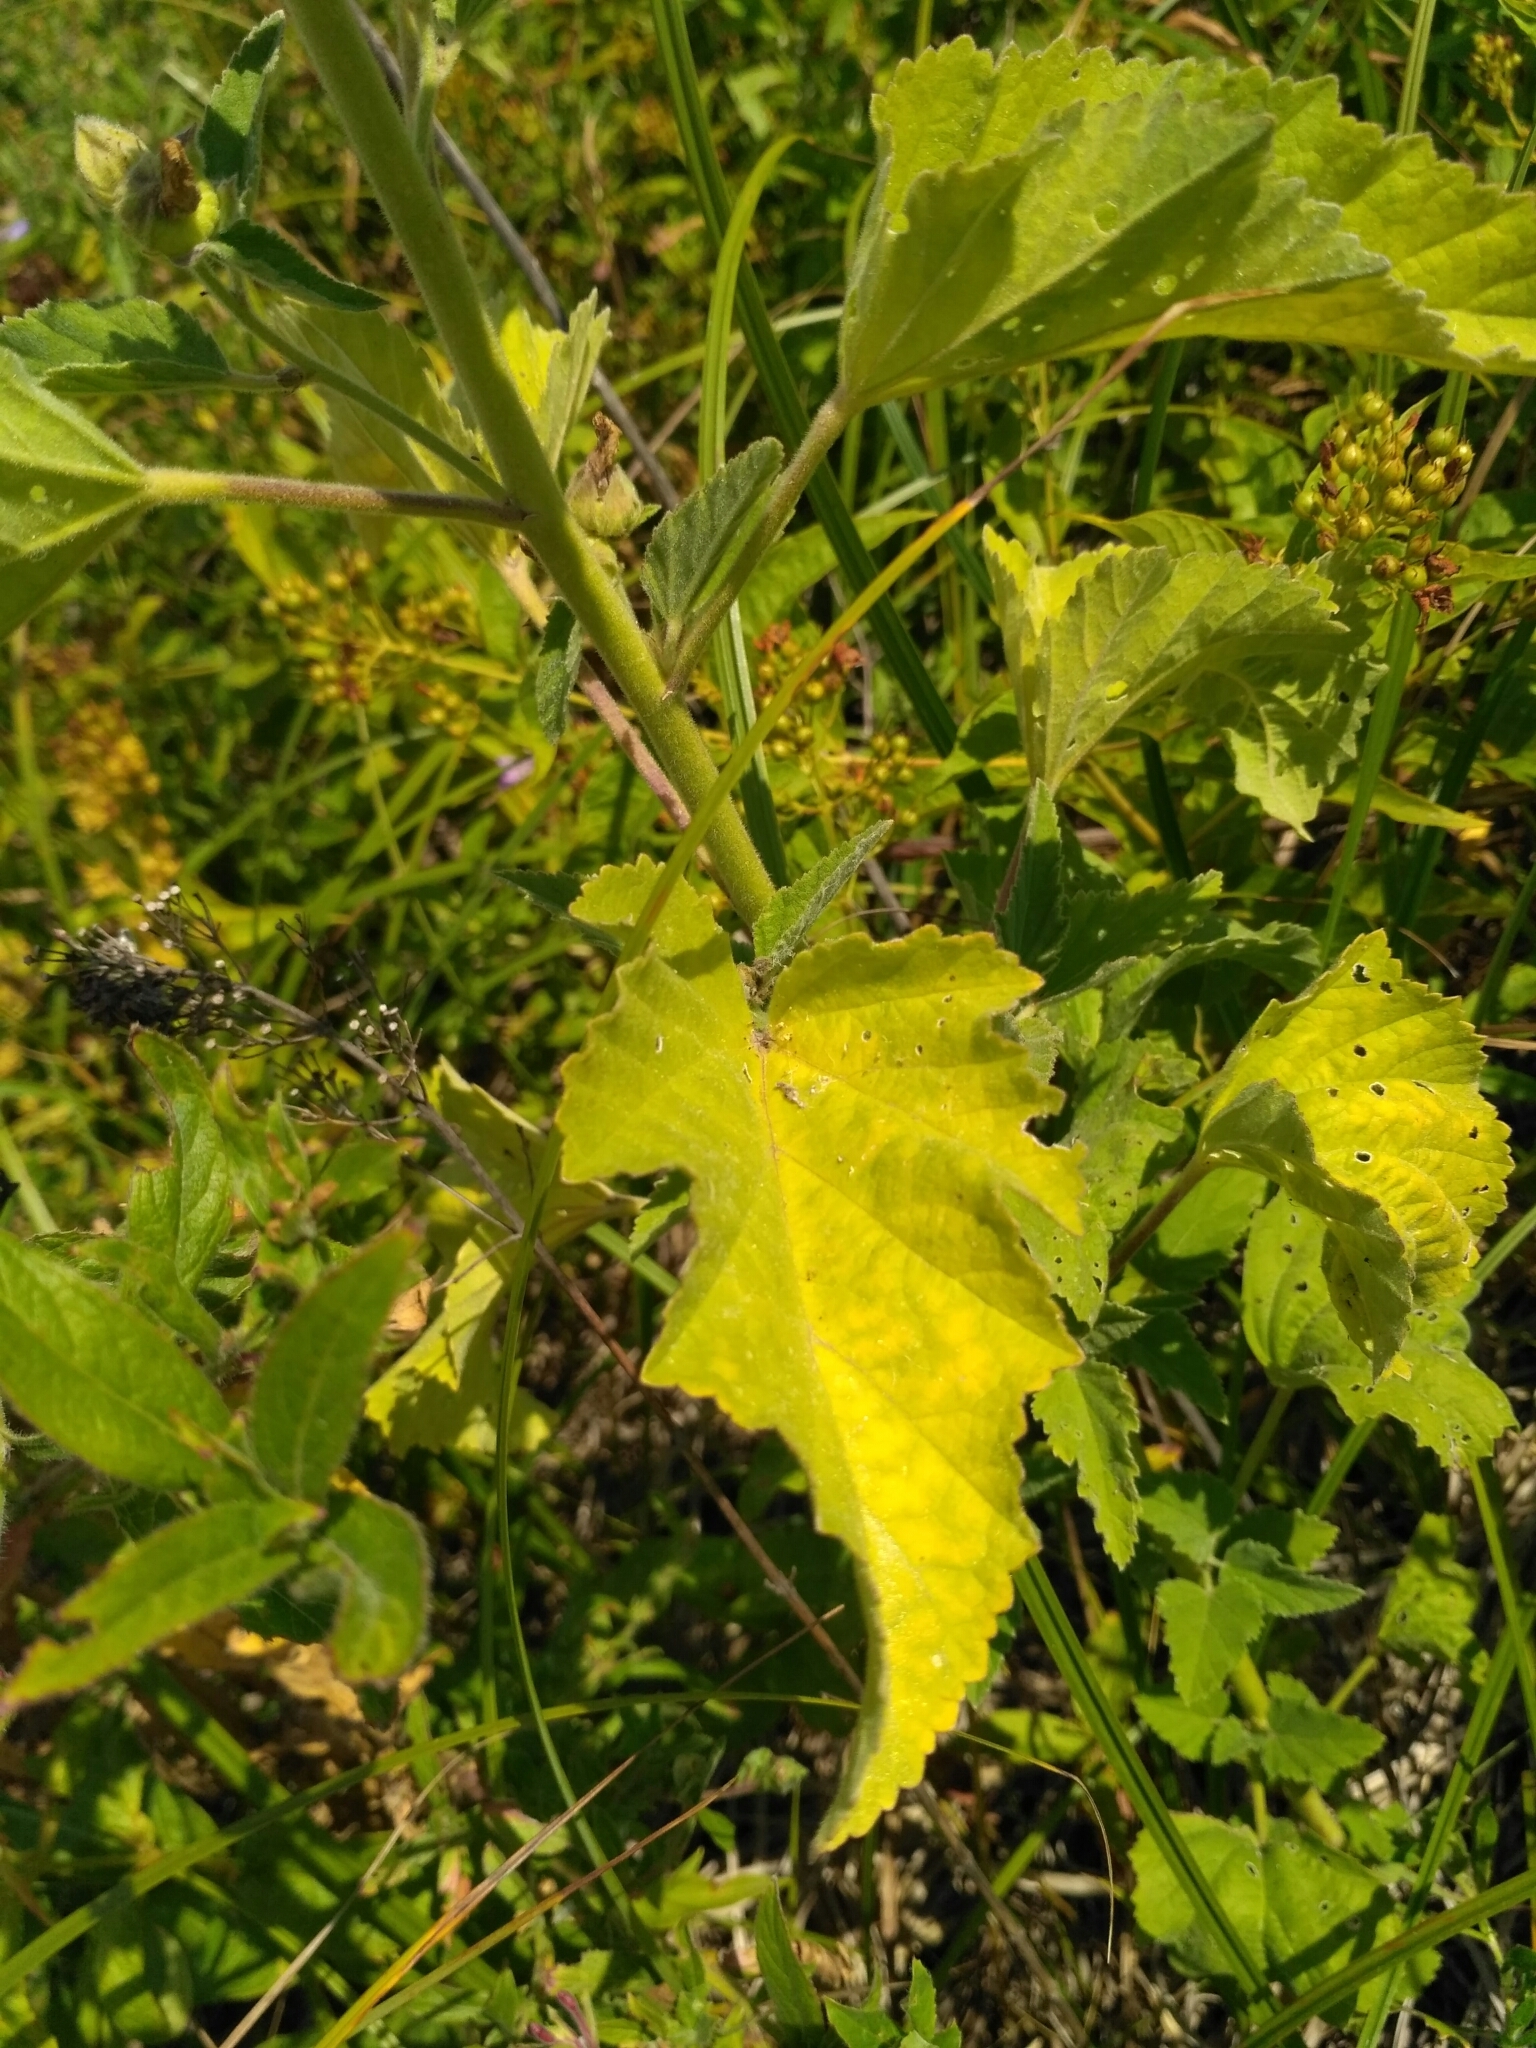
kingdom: Plantae
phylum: Tracheophyta
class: Magnoliopsida
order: Malvales
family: Malvaceae
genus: Althaea
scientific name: Althaea officinalis
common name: Marsh-mallow
